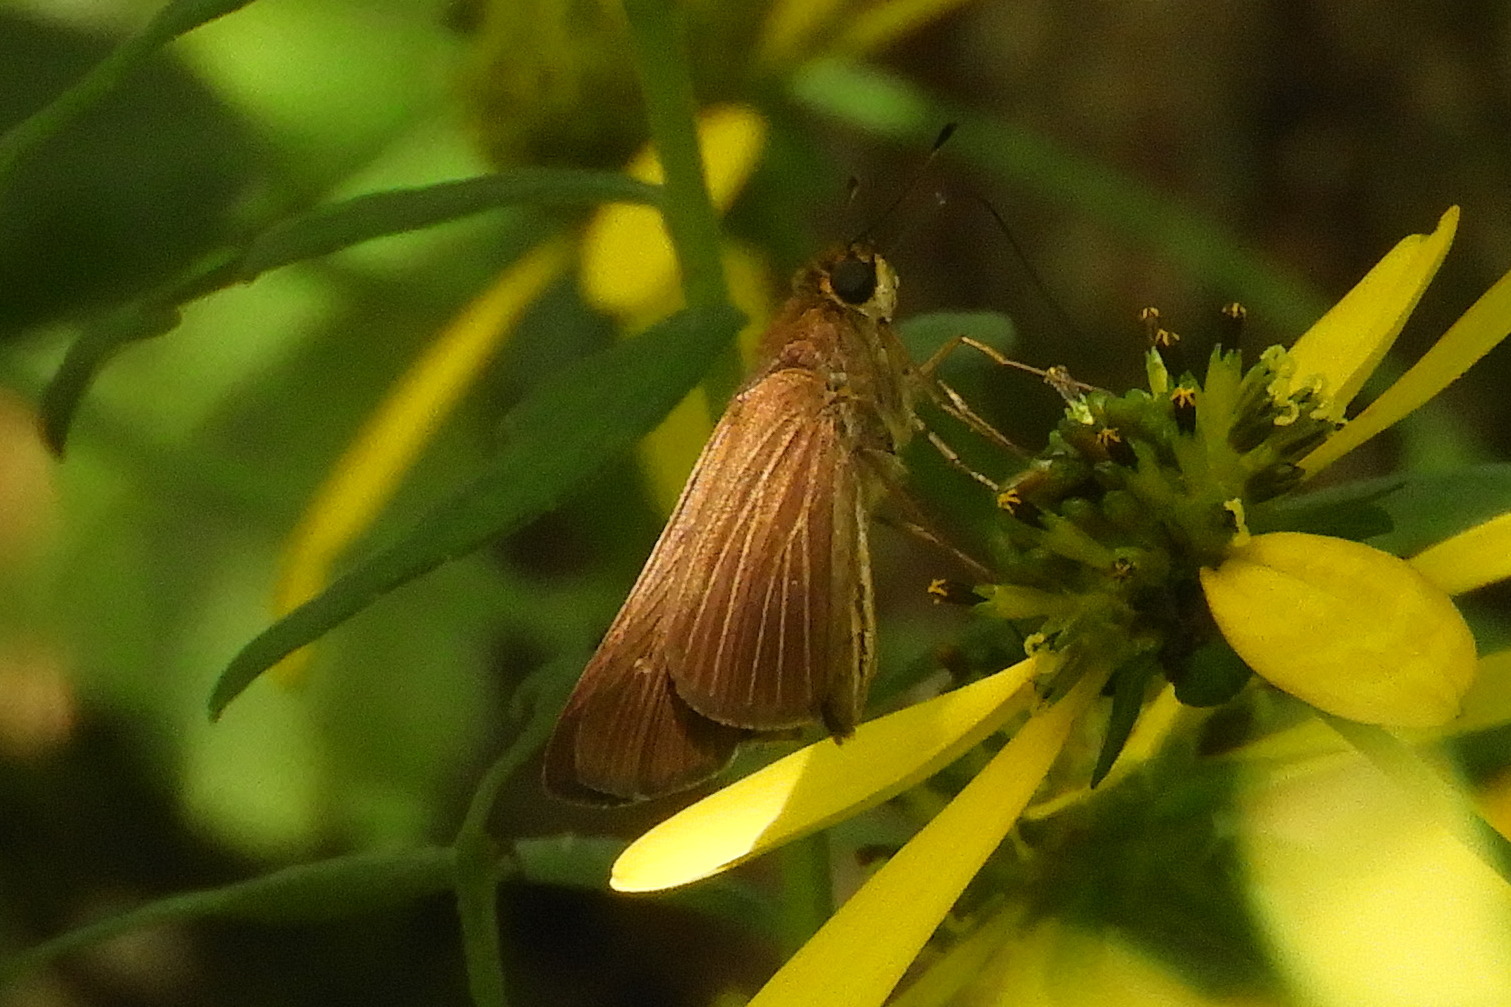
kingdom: Animalia
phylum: Arthropoda
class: Insecta
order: Lepidoptera
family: Hesperiidae
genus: Panoquina
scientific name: Panoquina ocola
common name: Ocola skipper
